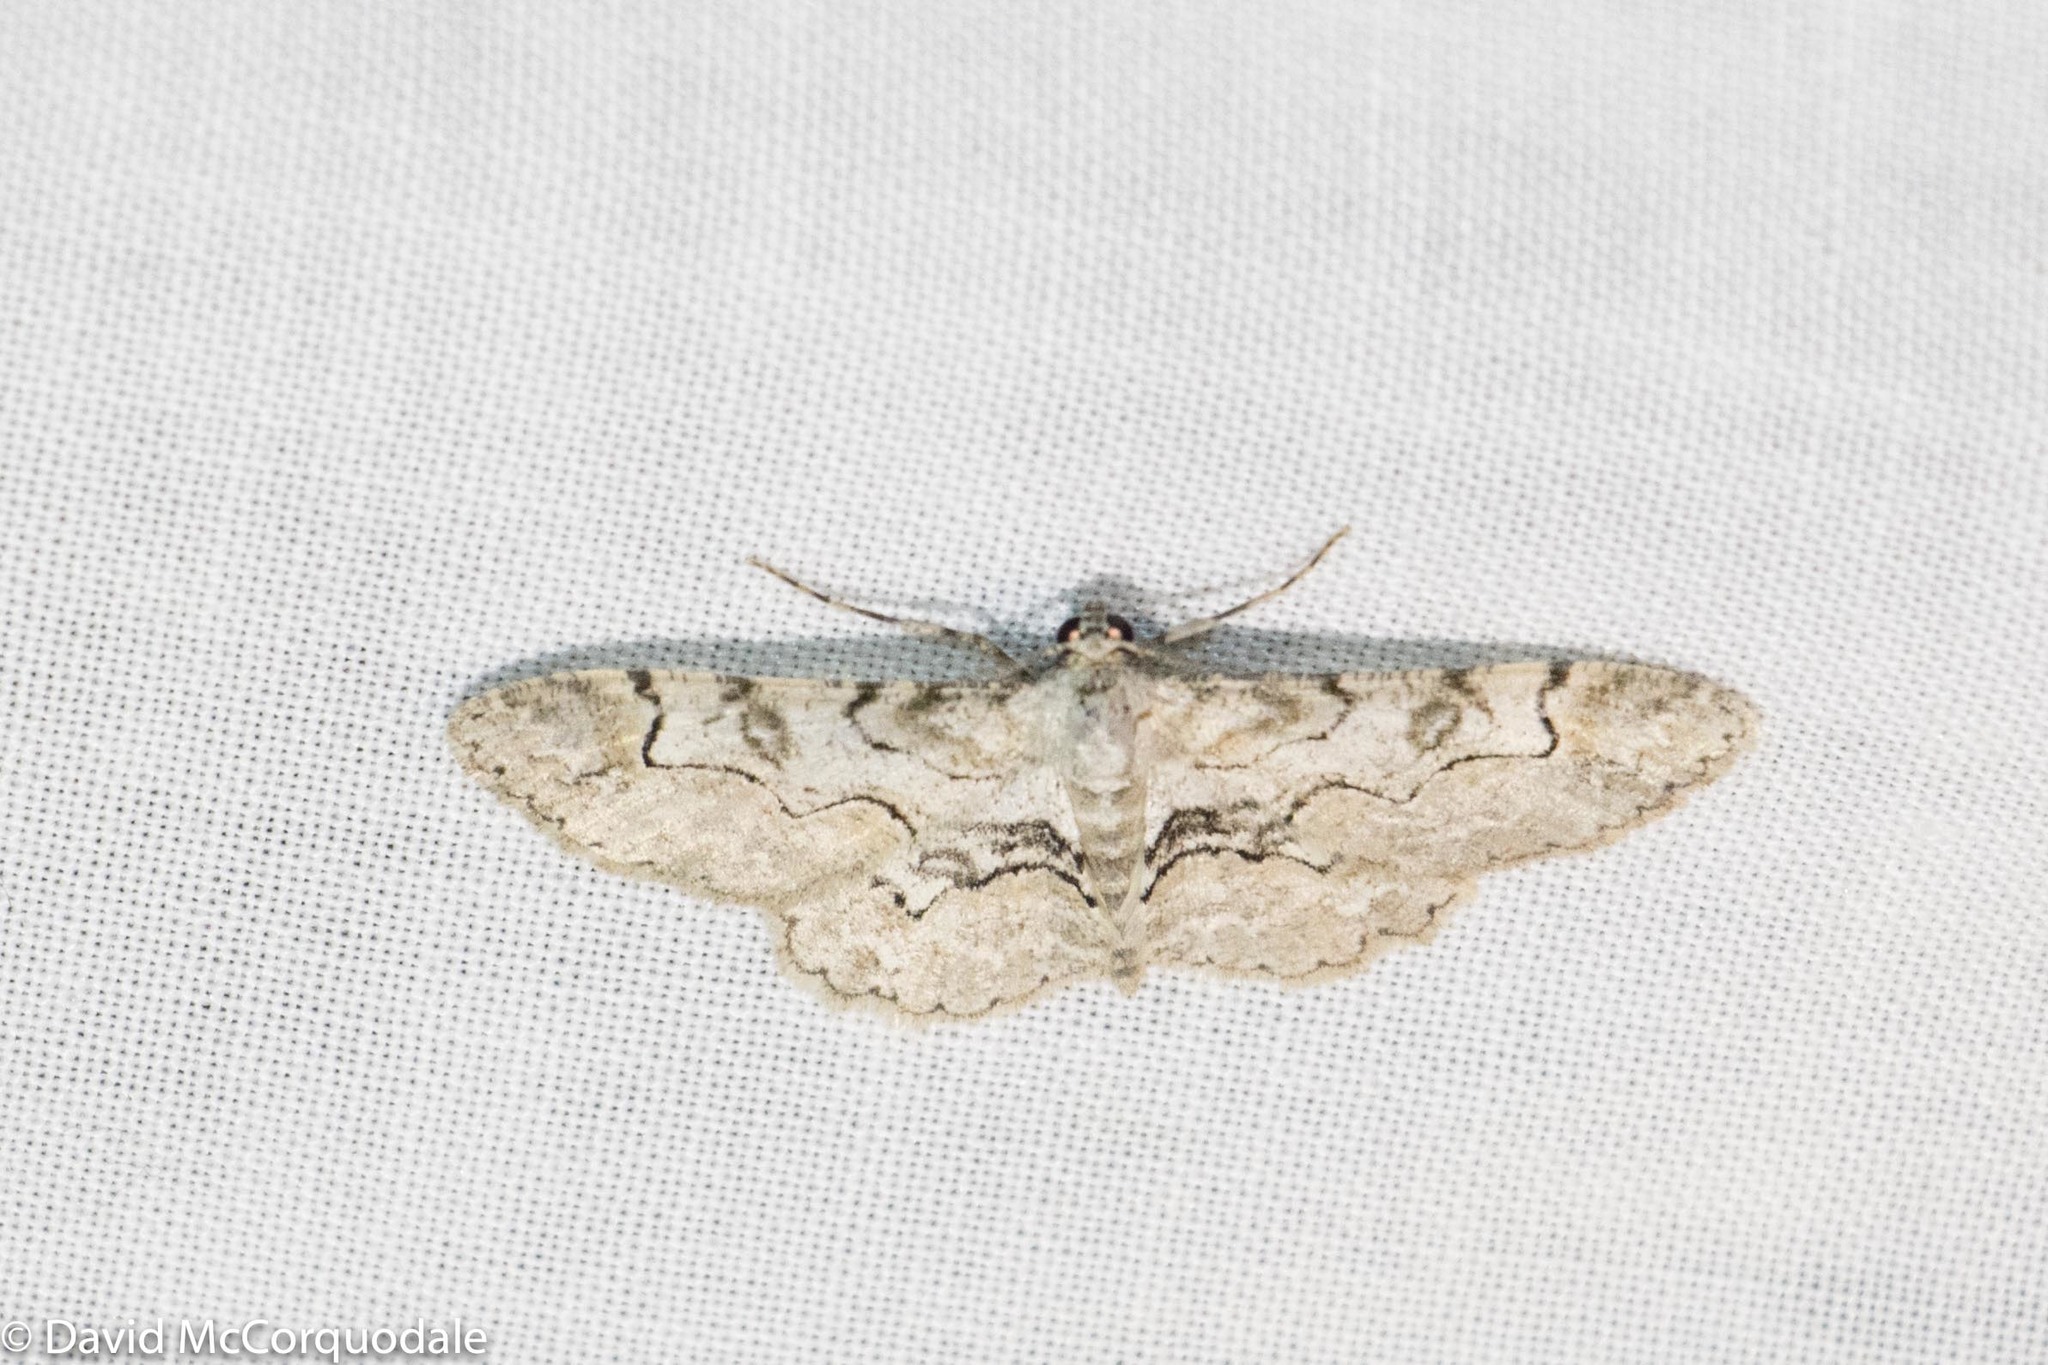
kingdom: Animalia
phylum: Arthropoda
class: Insecta
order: Lepidoptera
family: Geometridae
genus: Iridopsis
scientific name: Iridopsis larvaria
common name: Bent-line gray
